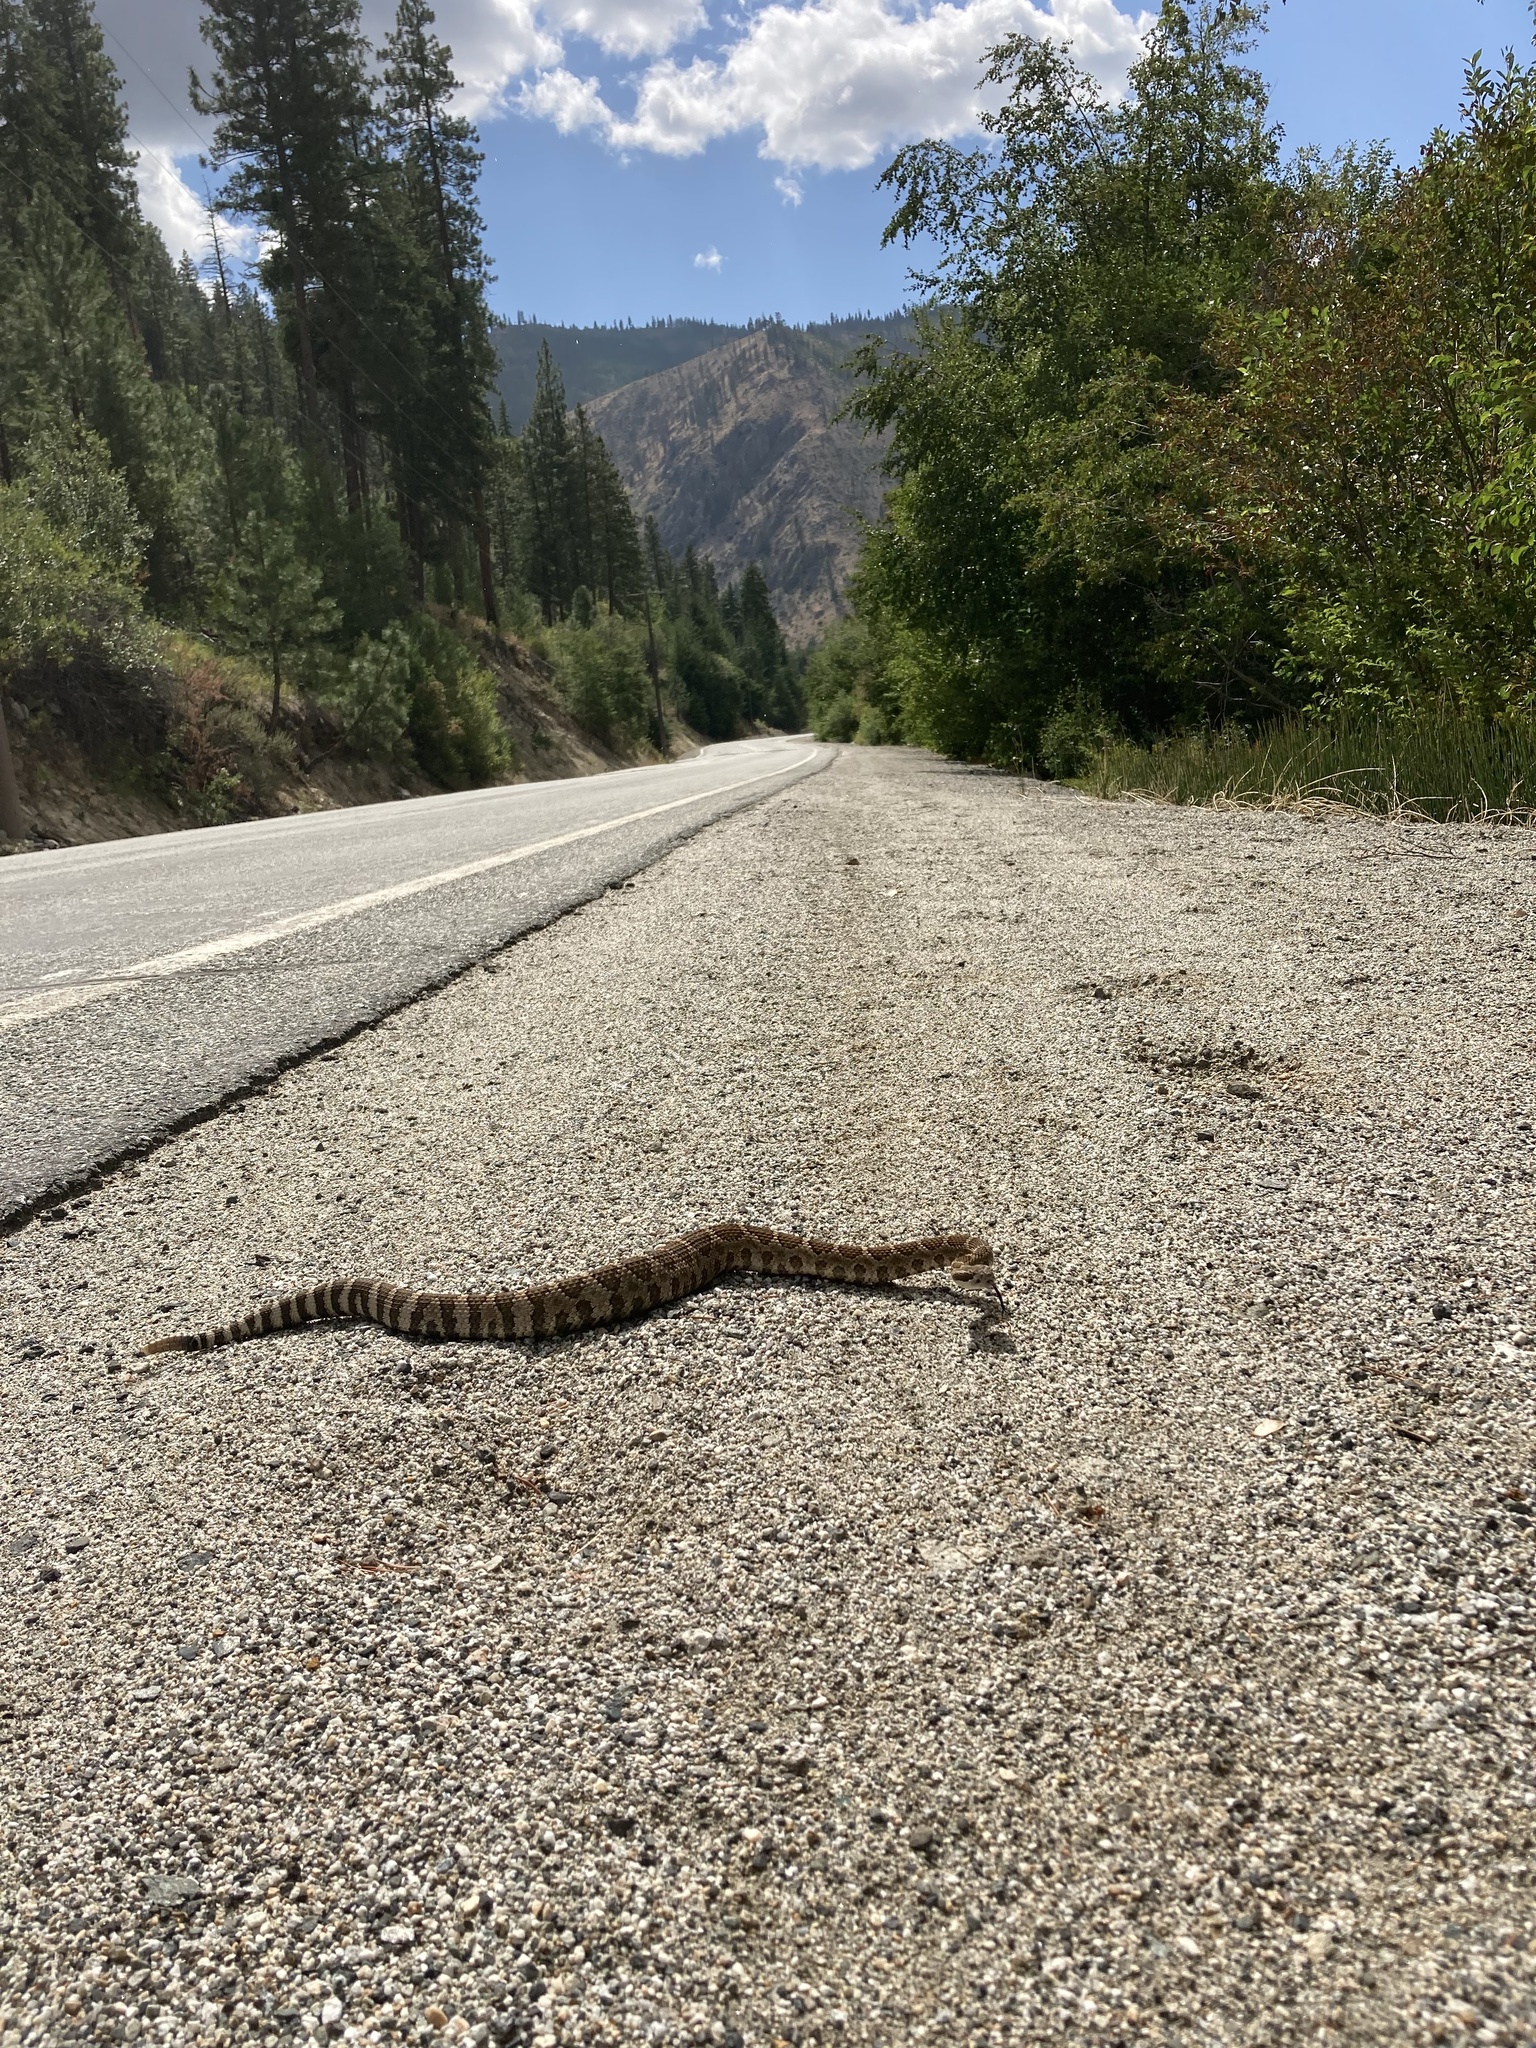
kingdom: Animalia
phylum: Chordata
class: Squamata
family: Viperidae
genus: Crotalus
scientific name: Crotalus oreganus
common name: Abyssus
